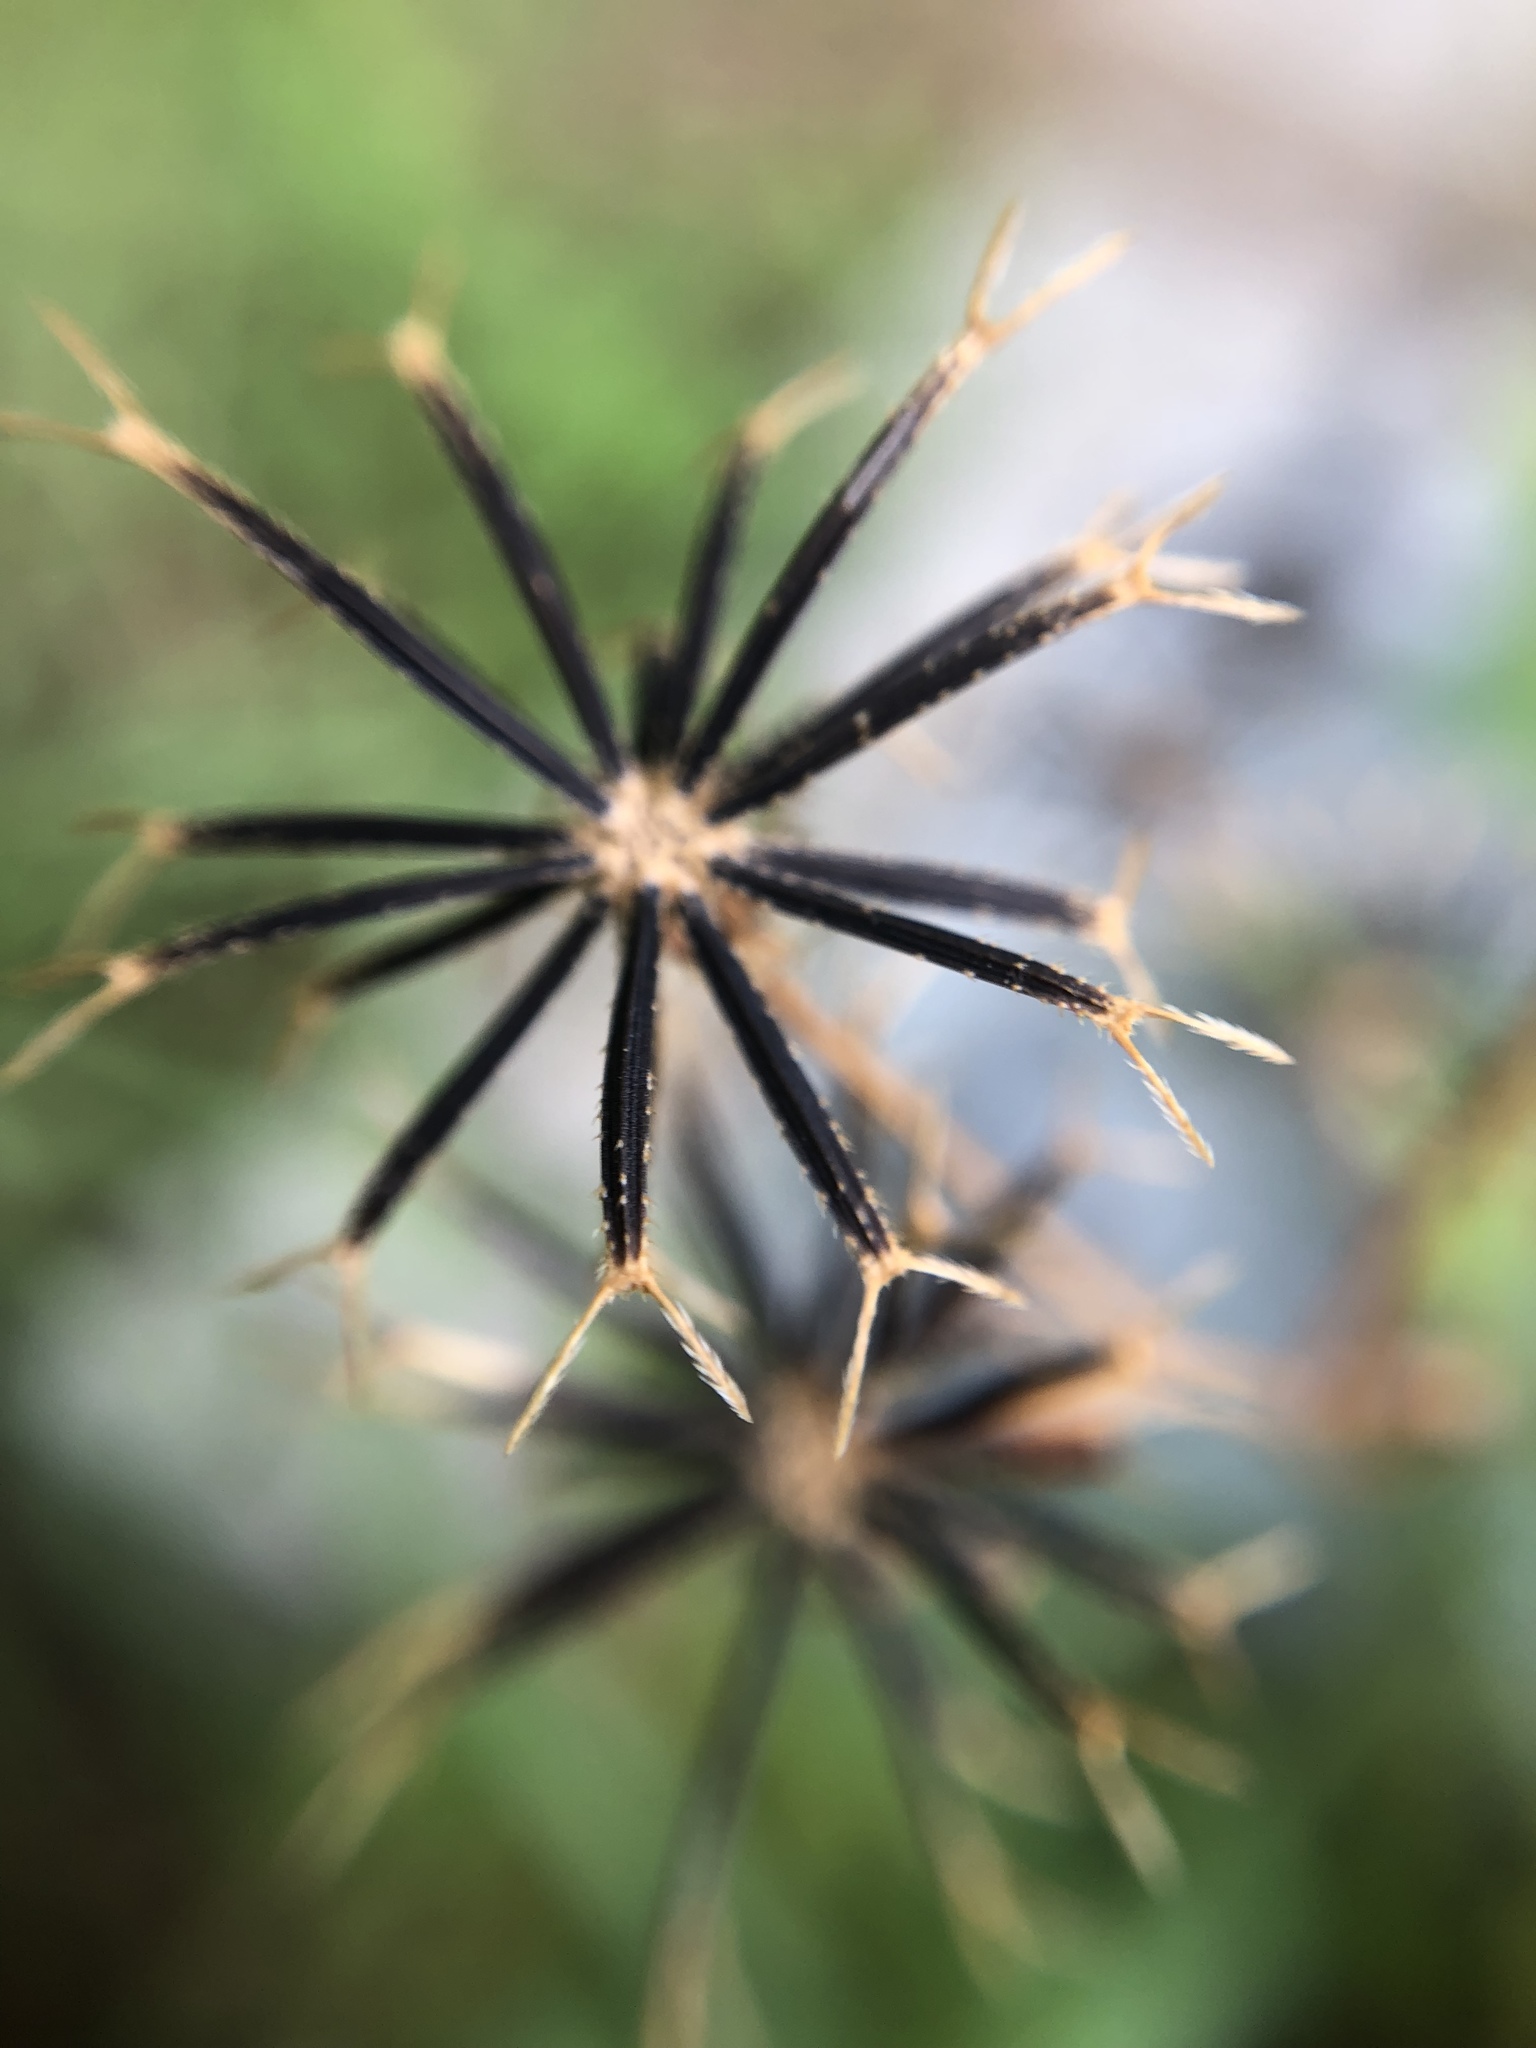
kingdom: Plantae
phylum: Tracheophyta
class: Magnoliopsida
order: Asterales
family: Asteraceae
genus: Bidens
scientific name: Bidens alba
